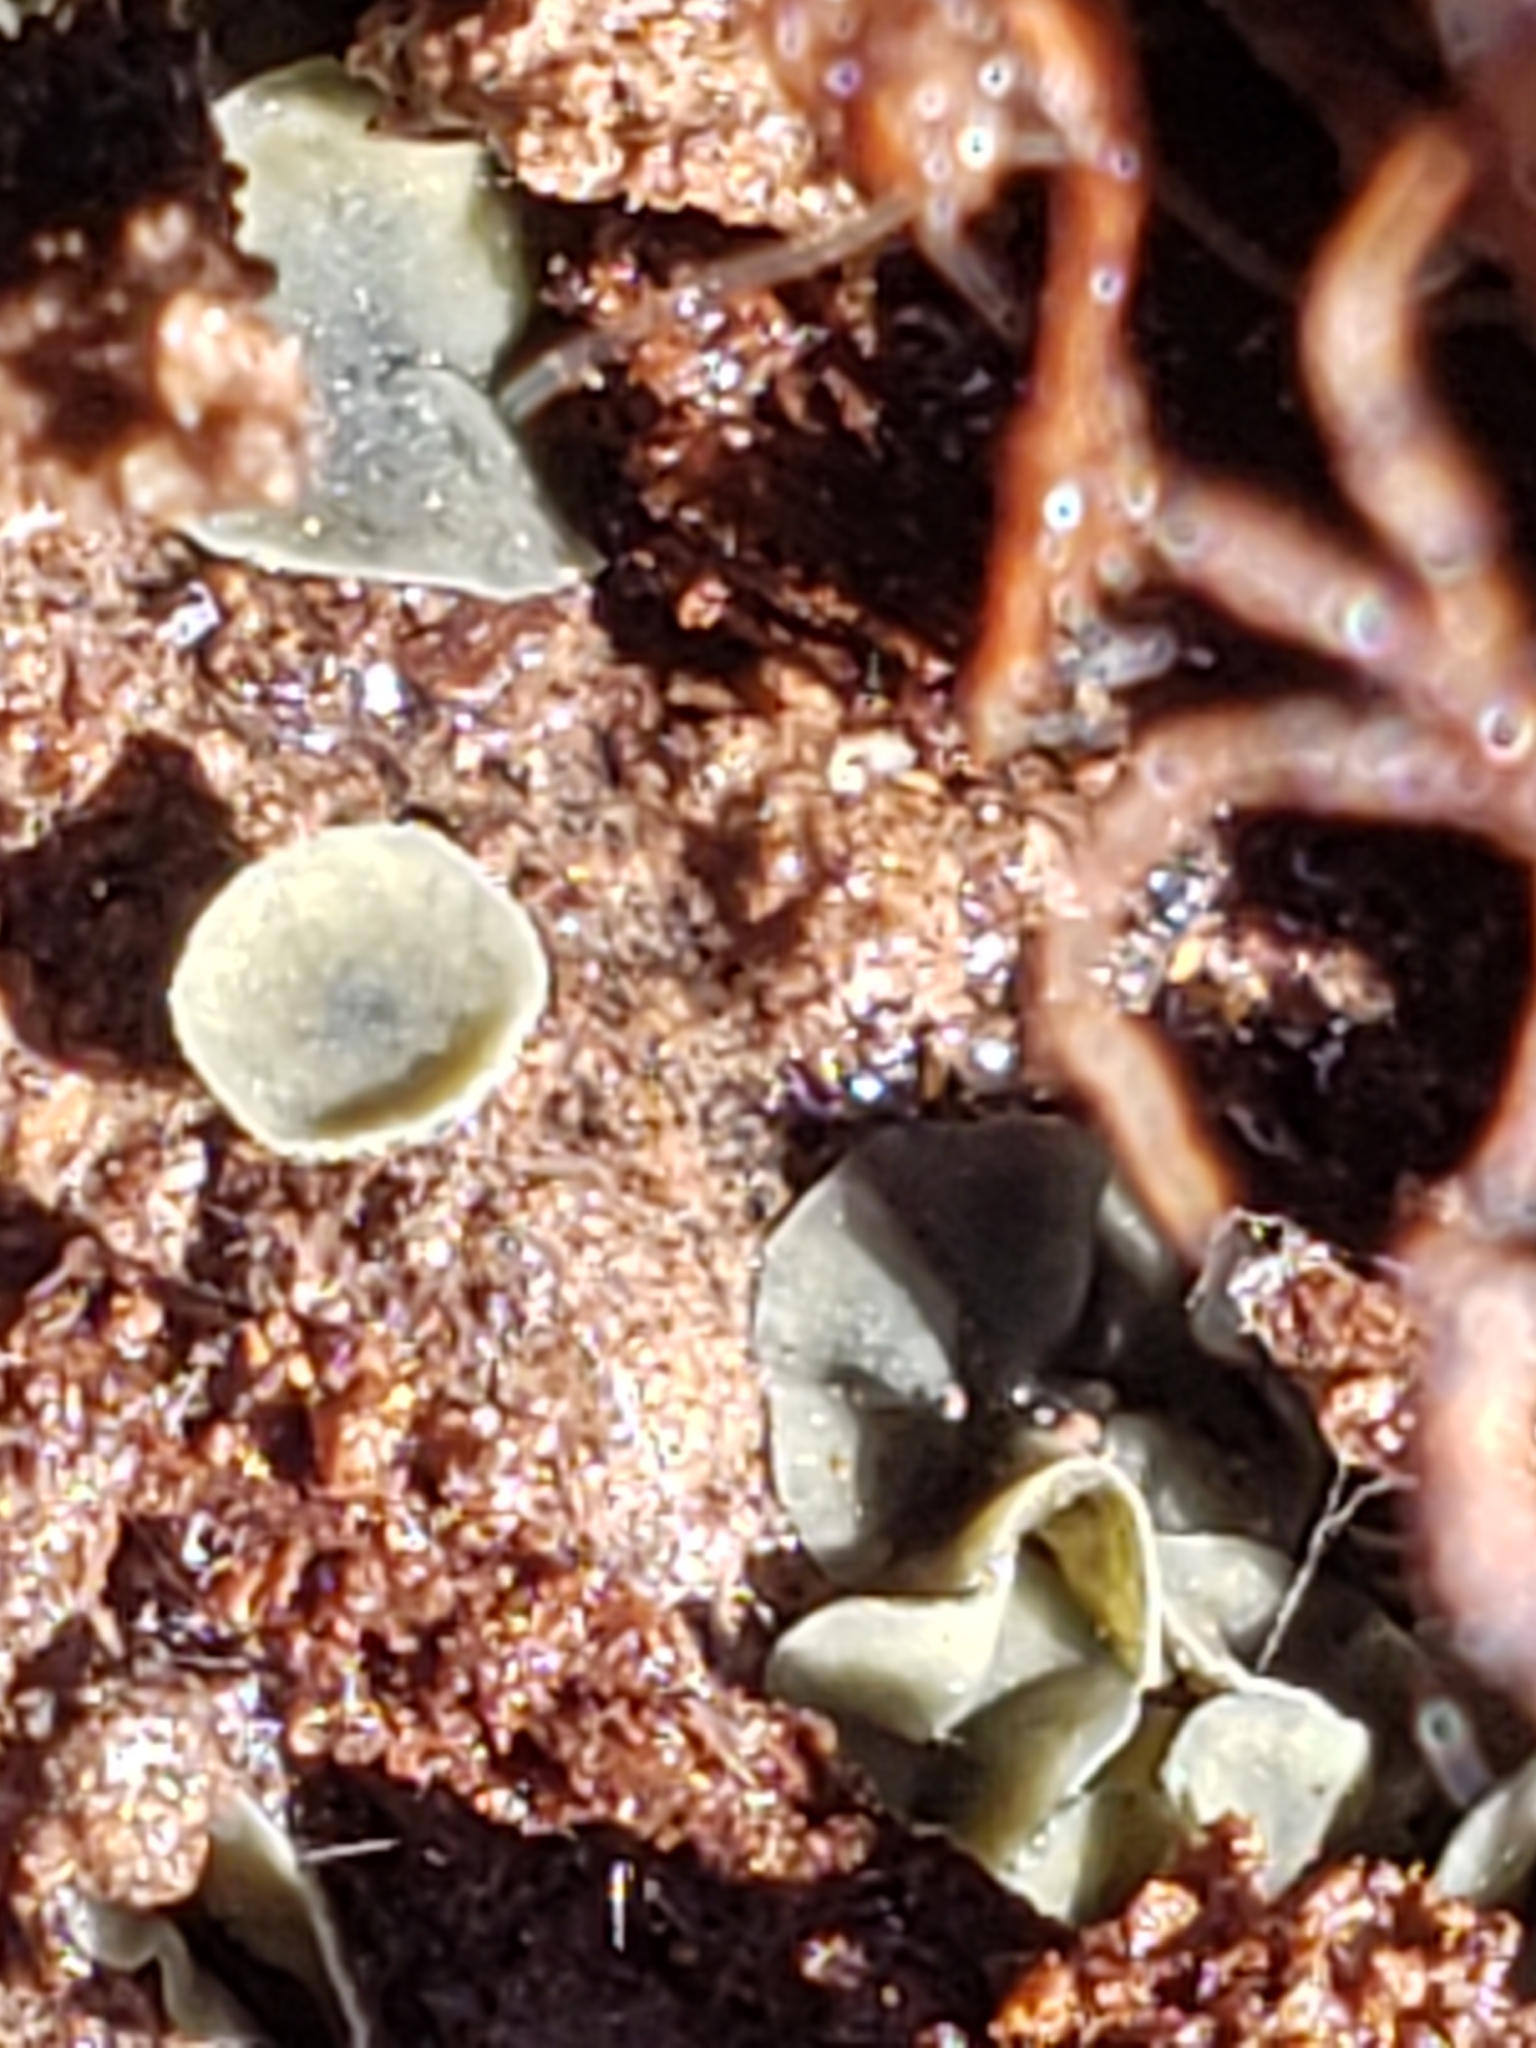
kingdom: Fungi
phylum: Ascomycota
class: Leotiomycetes
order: Helotiales
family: Chlorospleniaceae
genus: Chlorosplenium
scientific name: Chlorosplenium chlora
